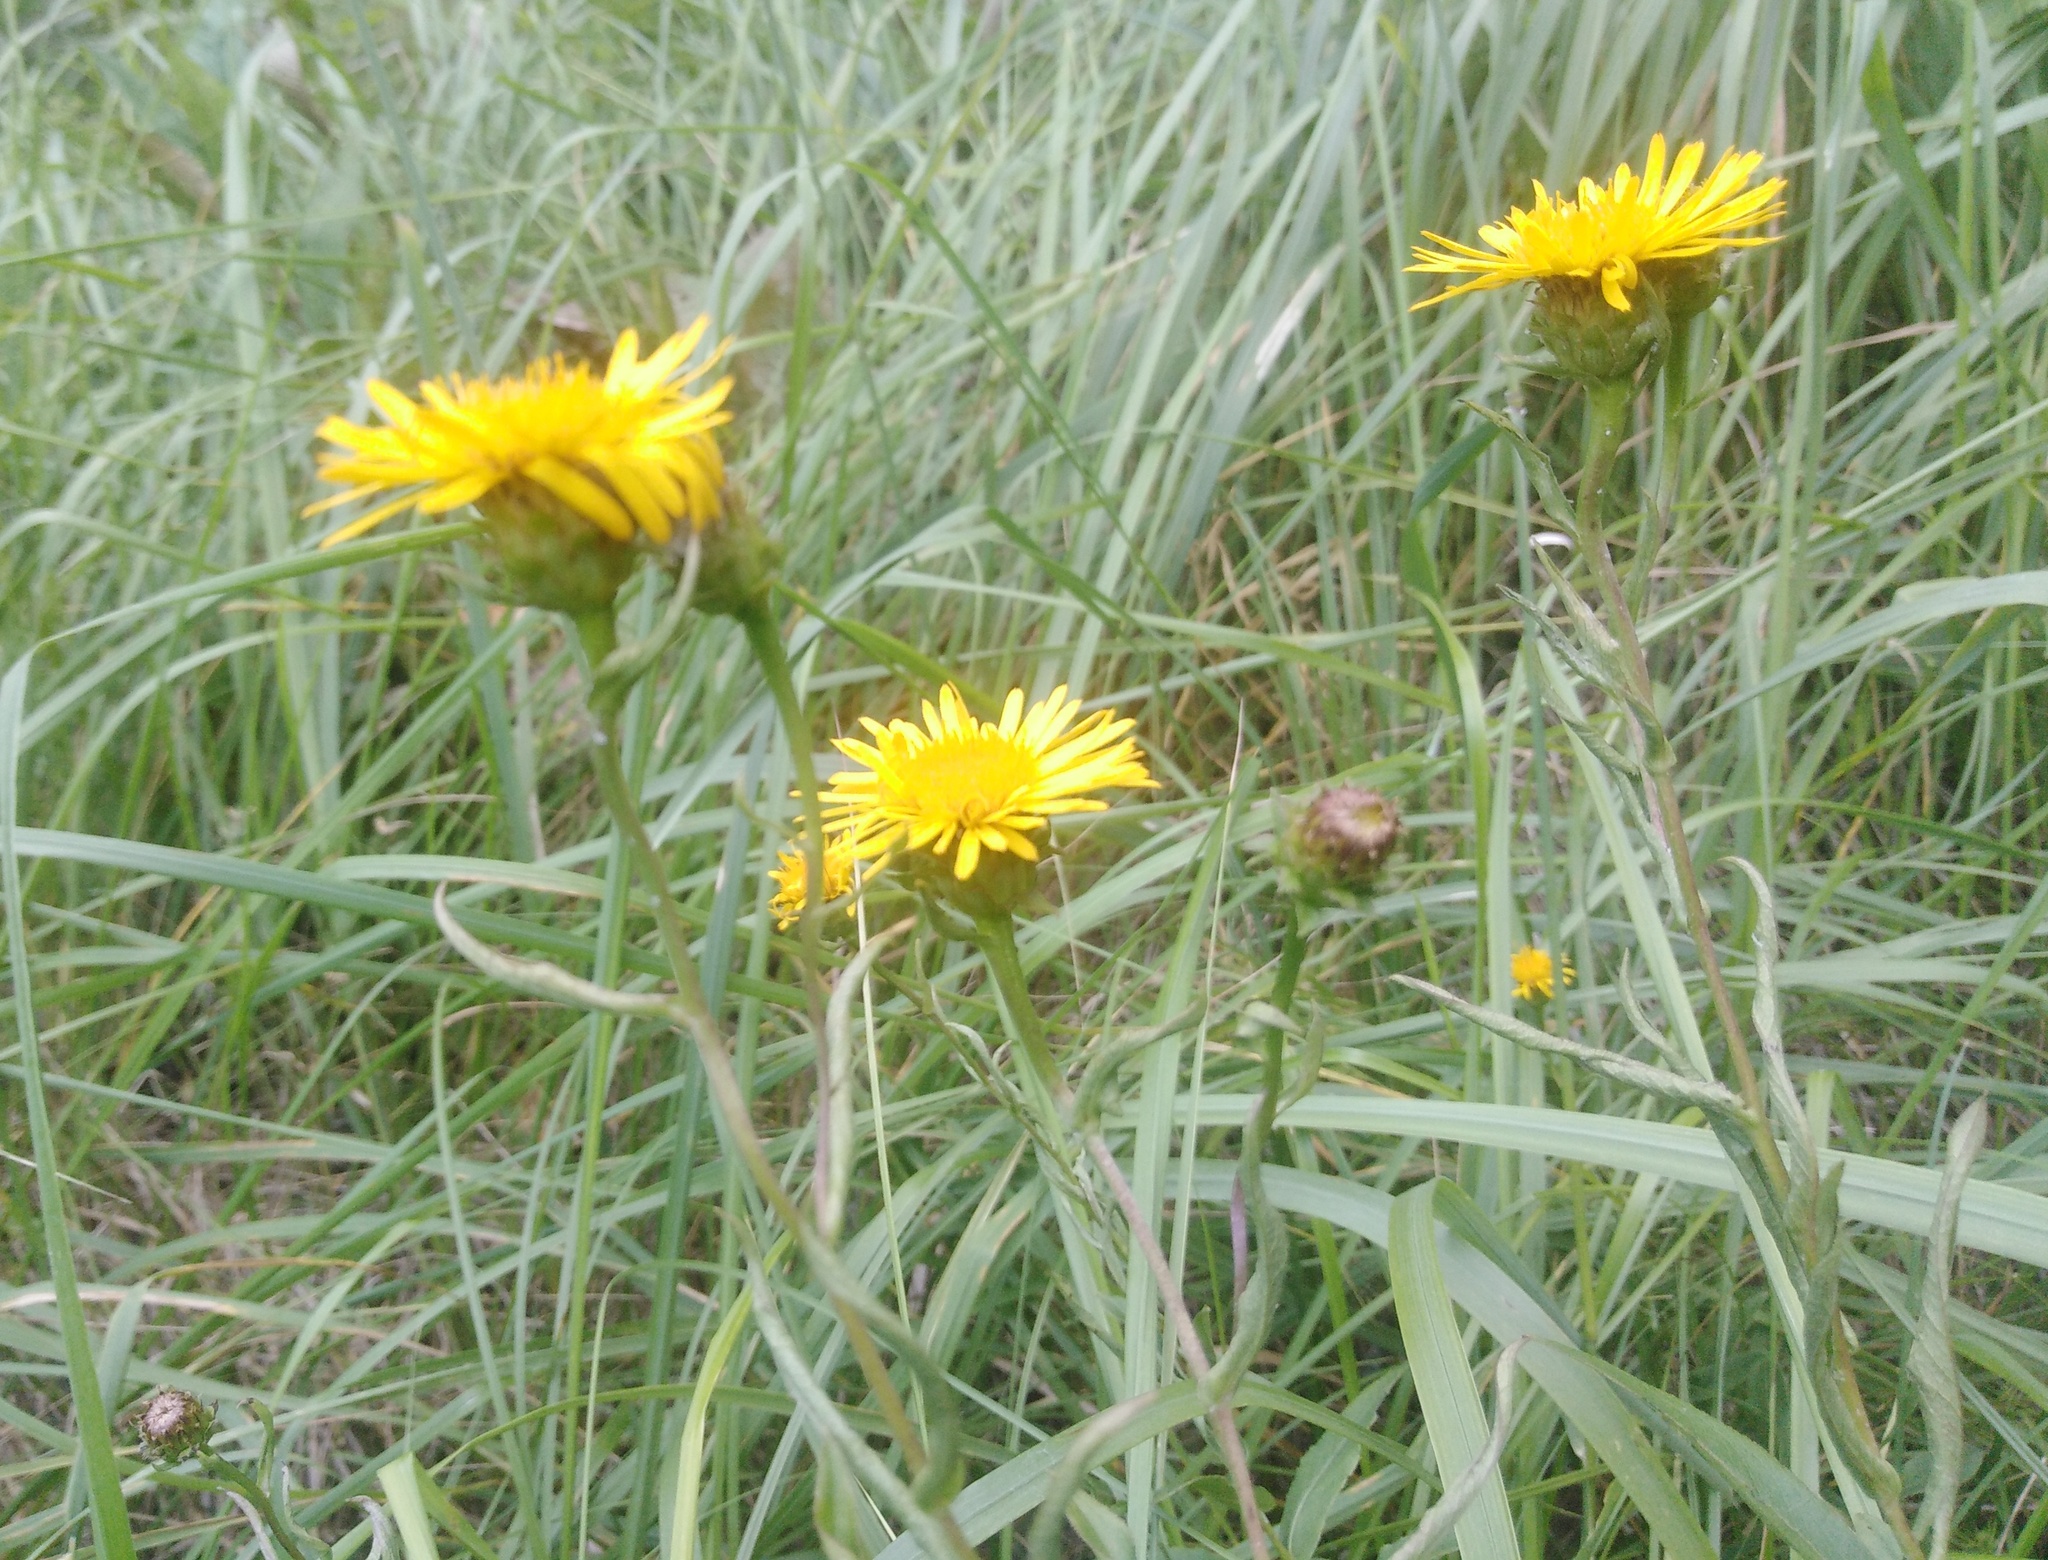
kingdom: Plantae
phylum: Tracheophyta
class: Magnoliopsida
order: Asterales
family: Asteraceae
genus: Pentanema
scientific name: Pentanema salicinum
